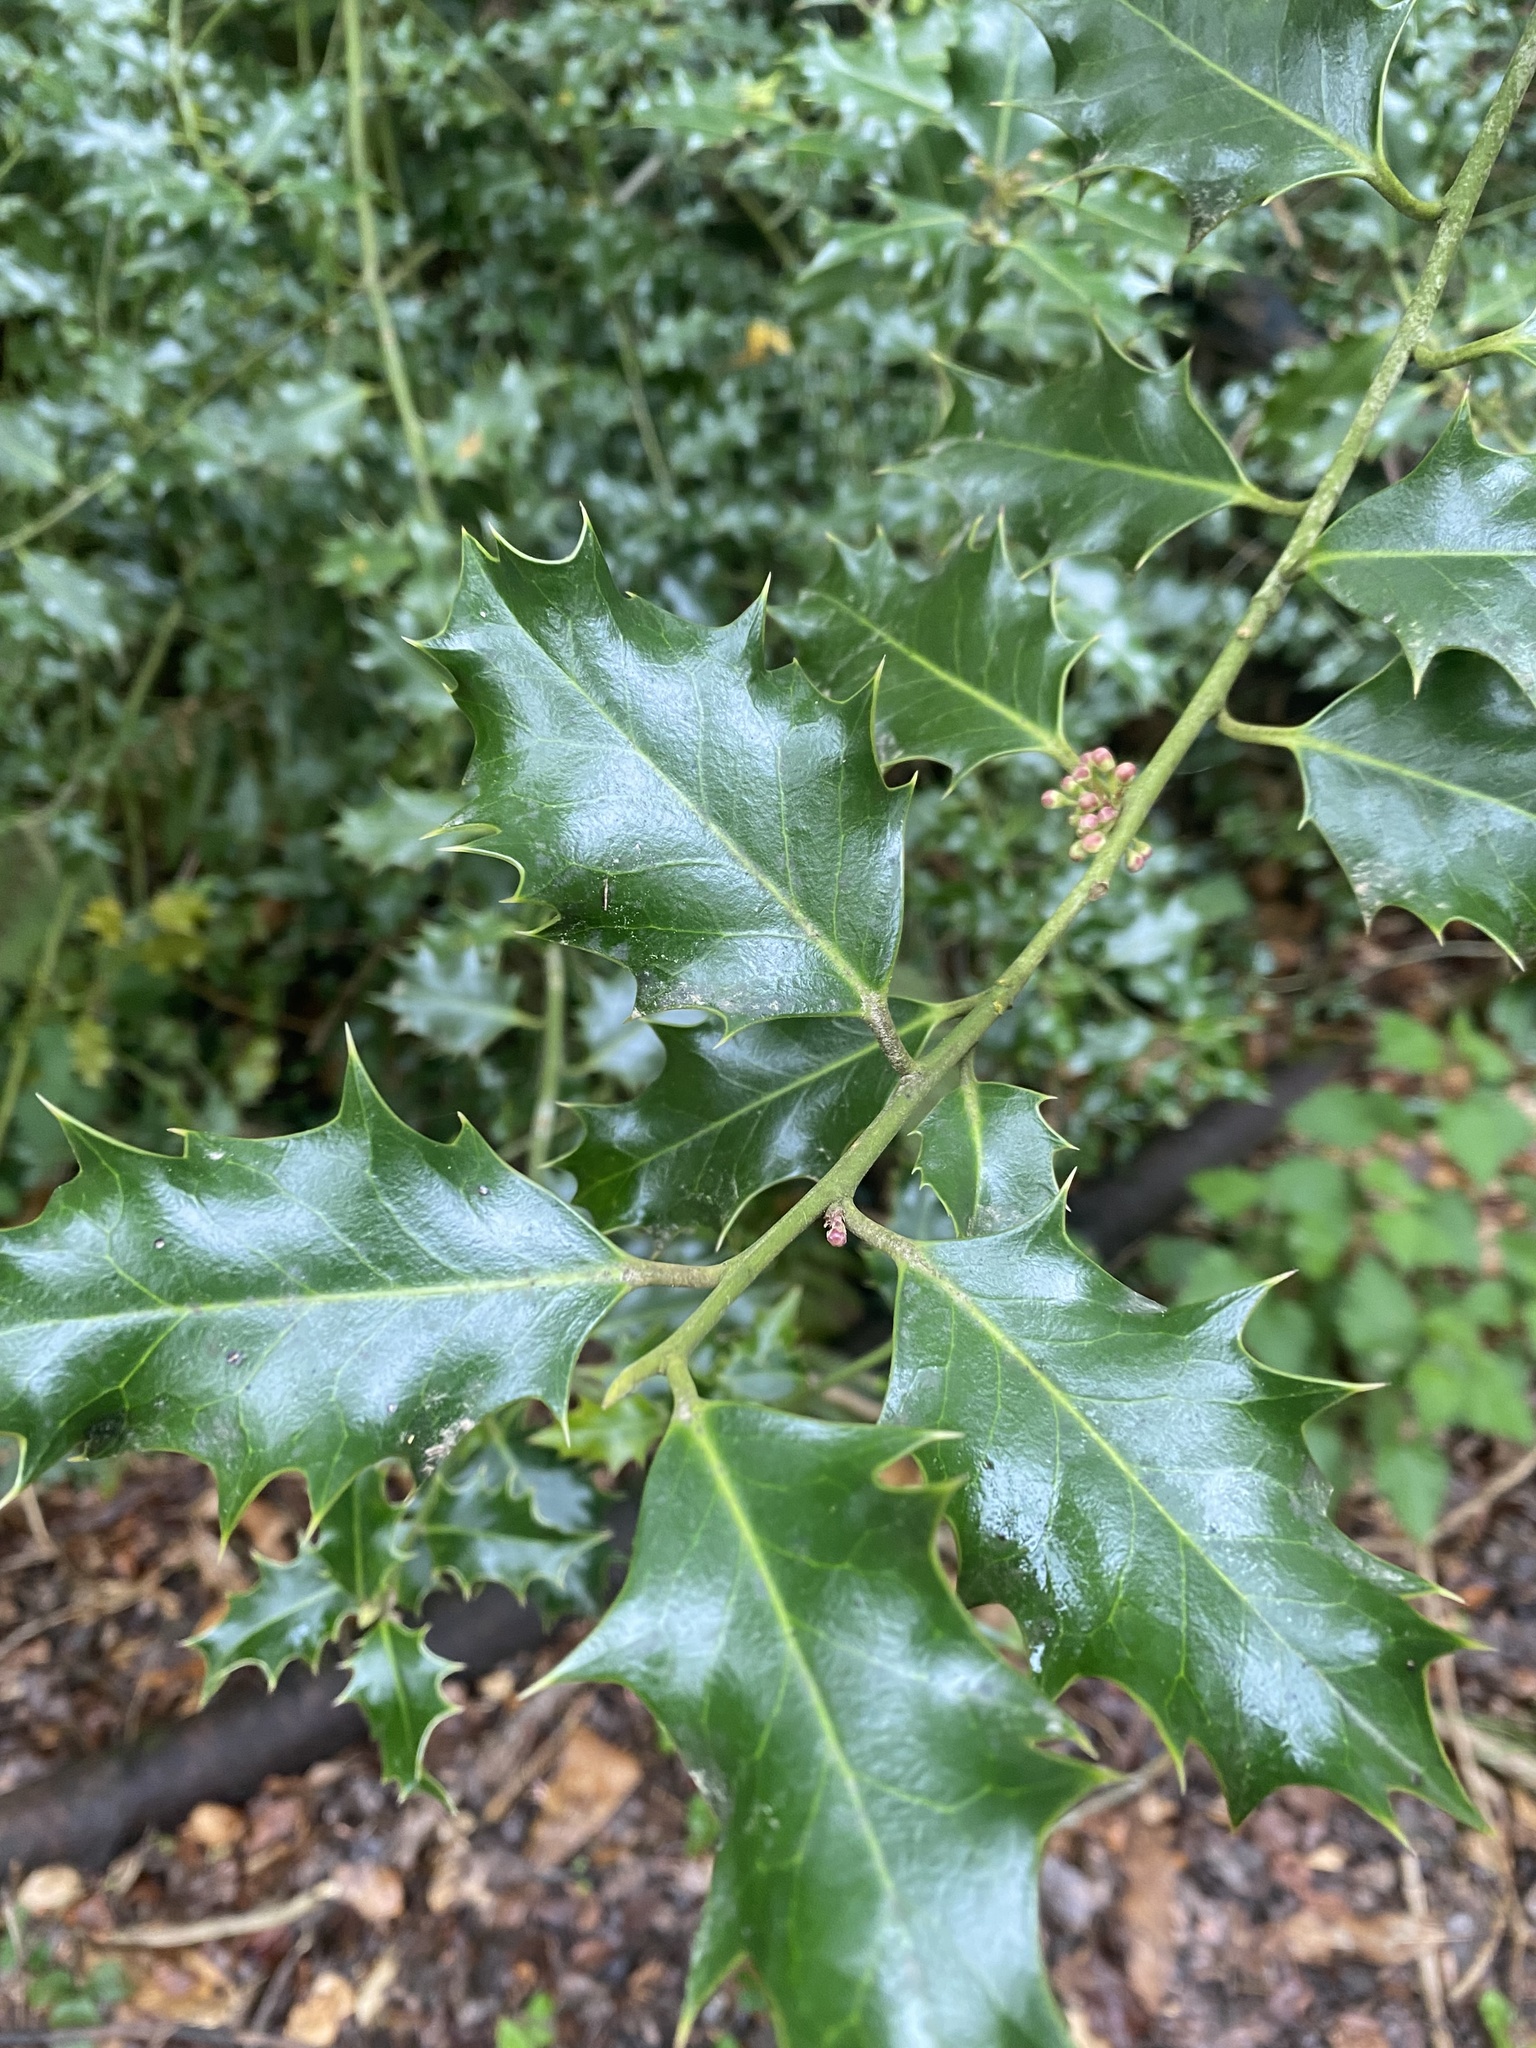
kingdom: Plantae
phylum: Tracheophyta
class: Magnoliopsida
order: Aquifoliales
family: Aquifoliaceae
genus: Ilex
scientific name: Ilex aquifolium
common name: English holly
